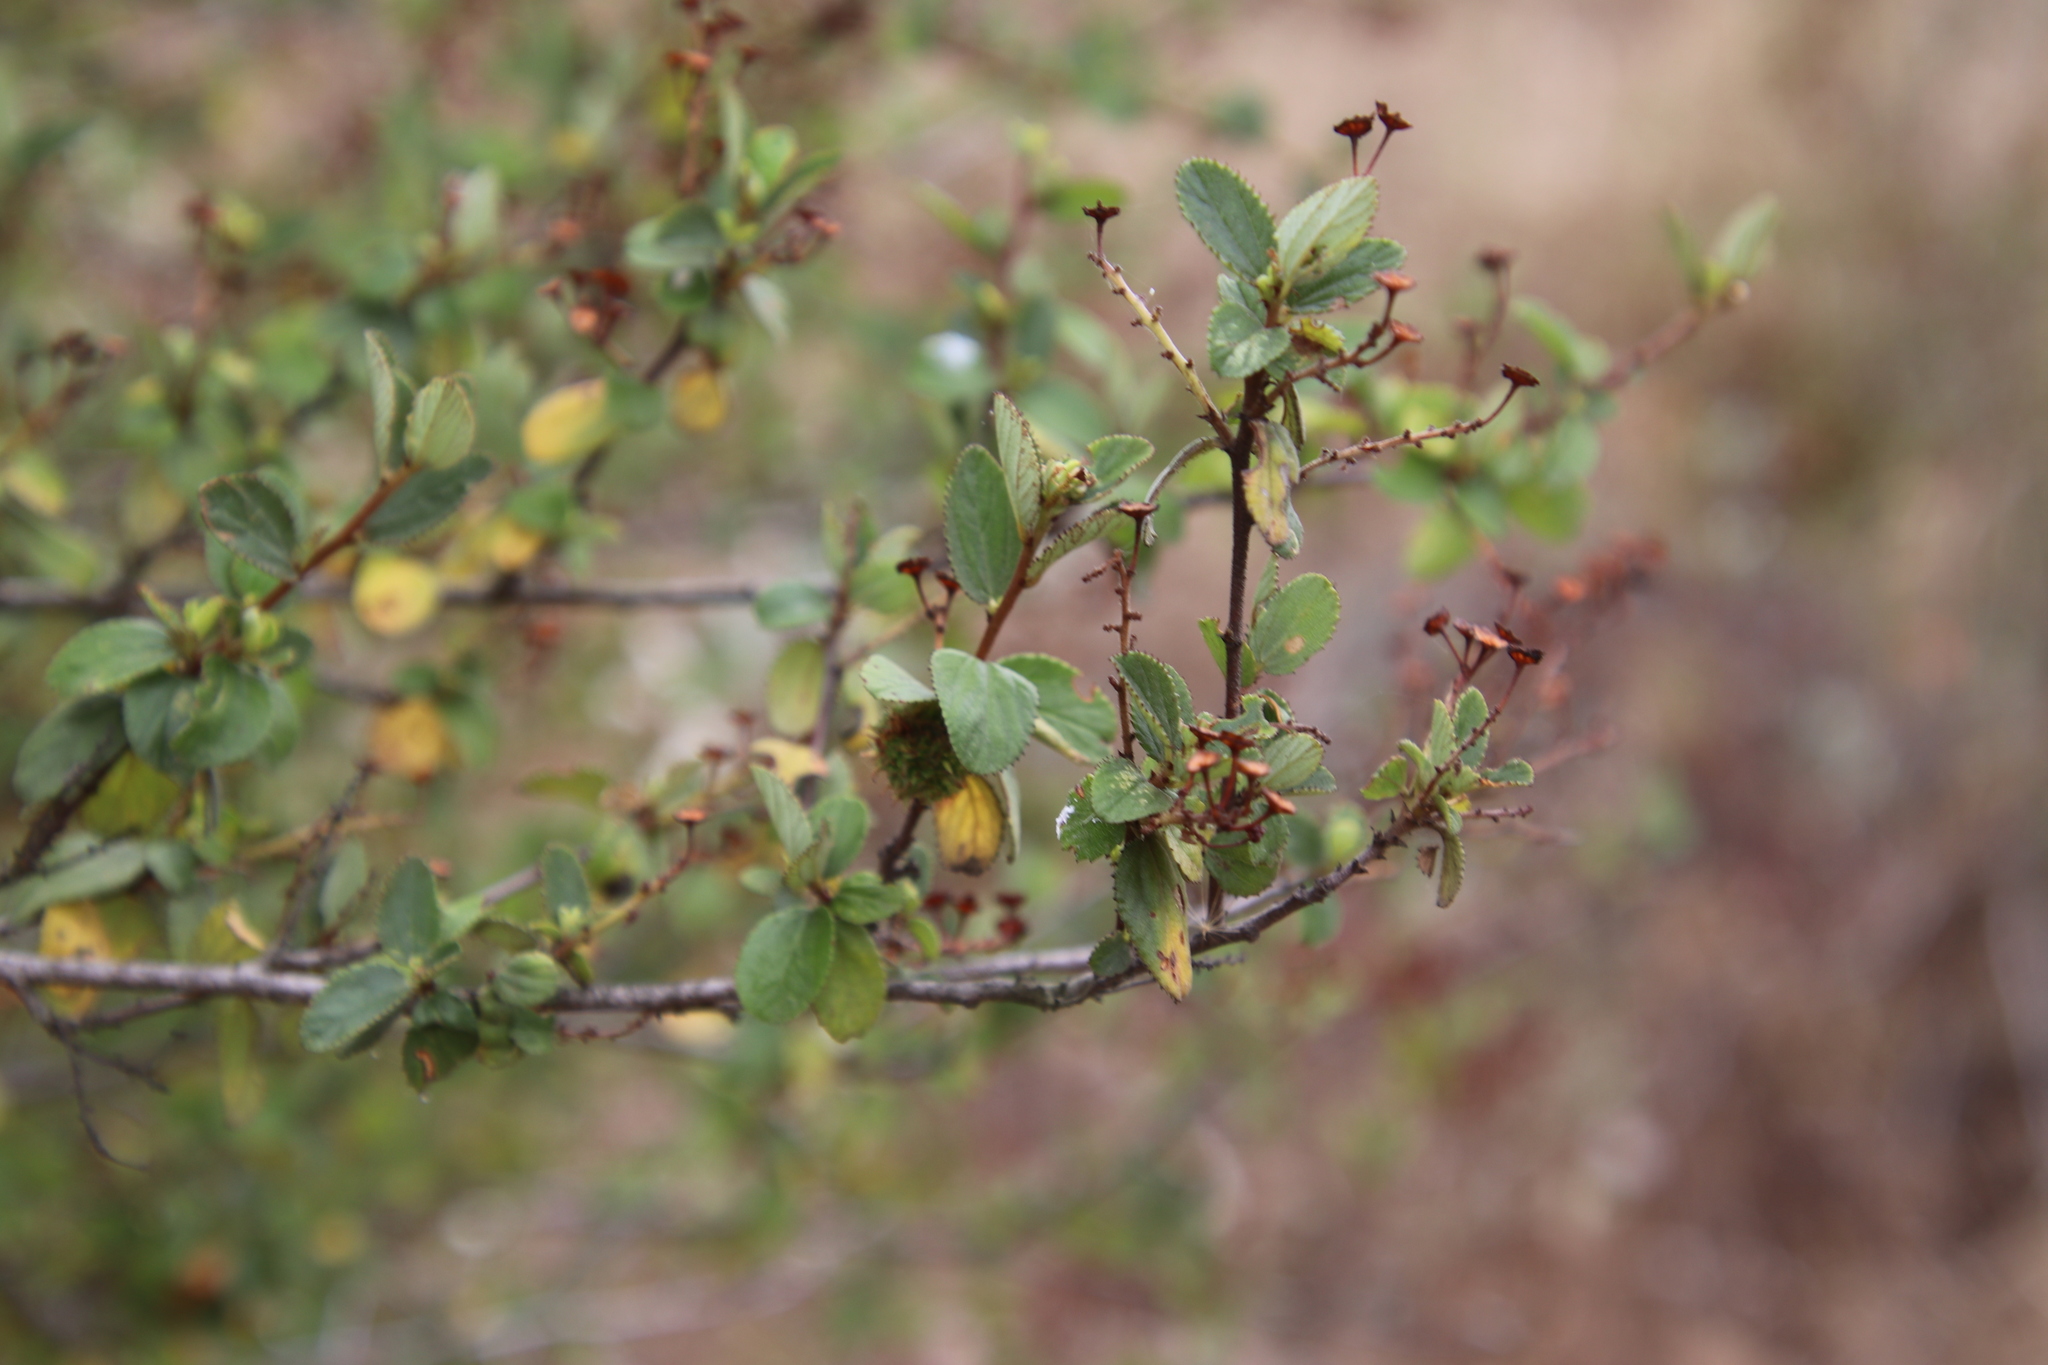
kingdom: Plantae
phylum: Tracheophyta
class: Magnoliopsida
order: Rosales
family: Rhamnaceae
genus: Ceanothus
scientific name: Ceanothus tomentosus
